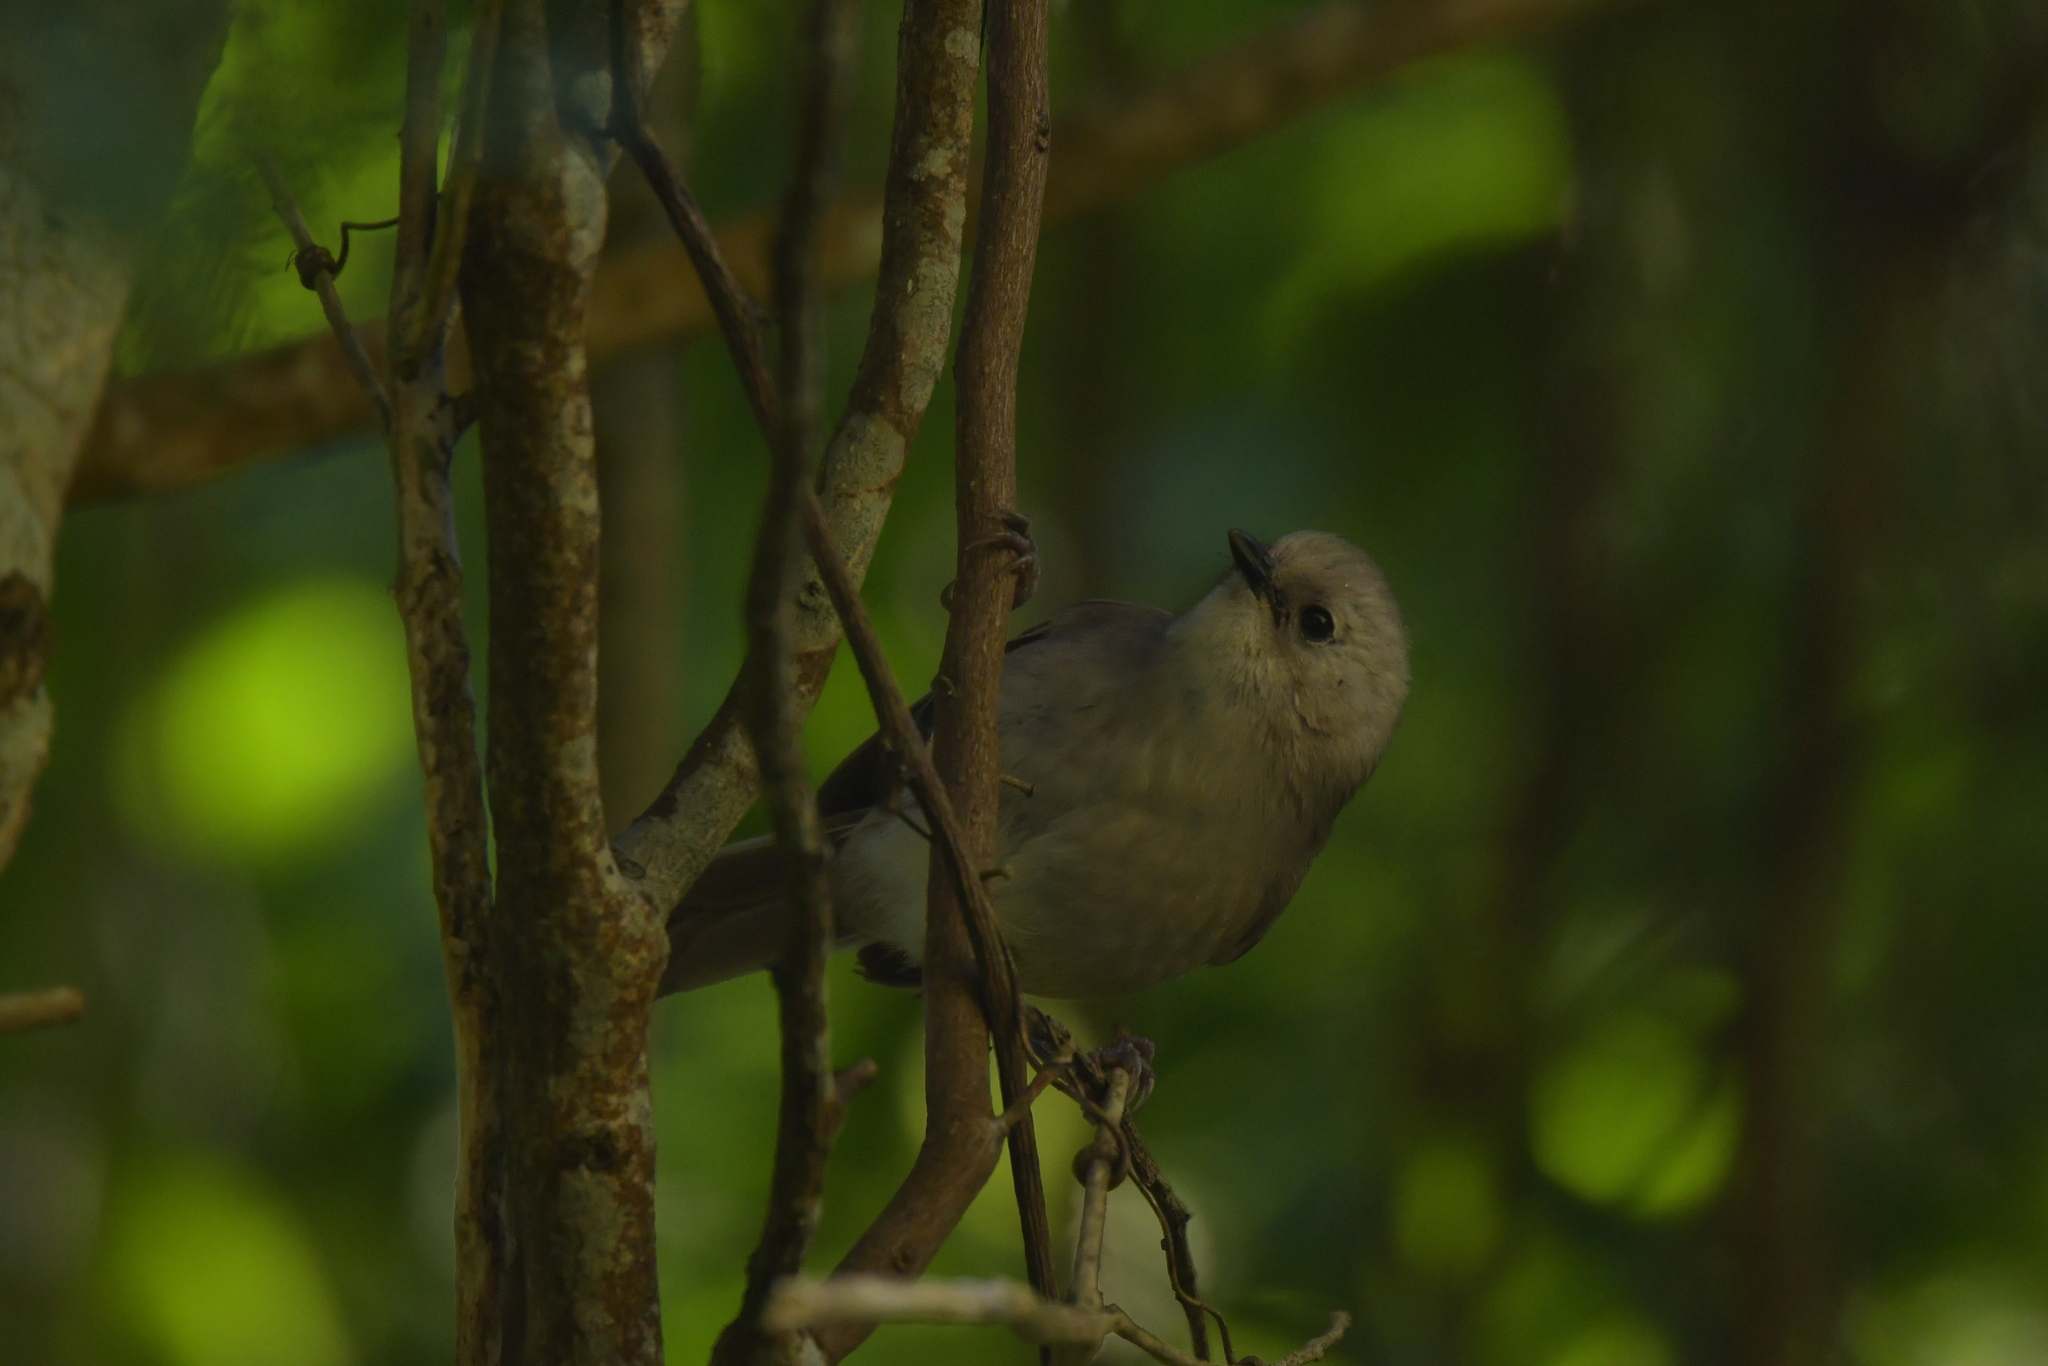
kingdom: Animalia
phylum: Chordata
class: Aves
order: Passeriformes
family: Acanthizidae
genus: Mohoua
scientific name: Mohoua albicilla
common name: Whitehead
